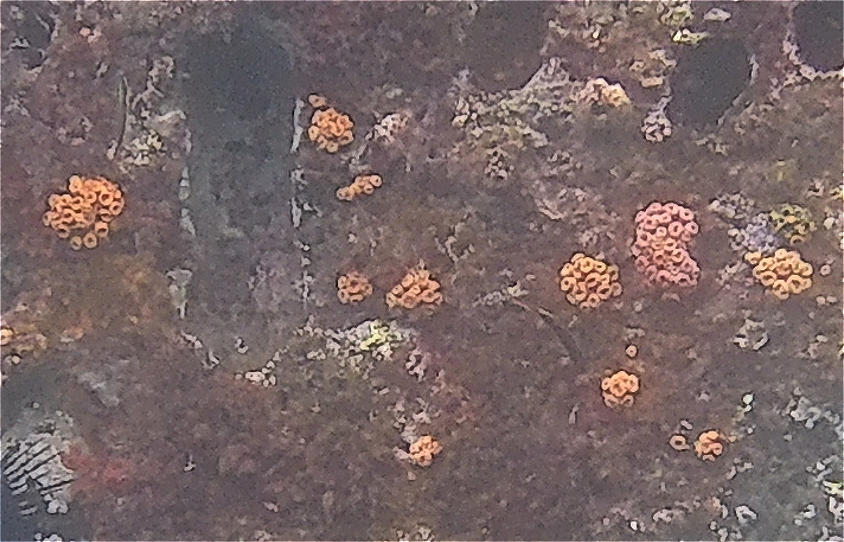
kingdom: Animalia
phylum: Cnidaria
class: Anthozoa
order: Scleractinia
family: Dendrophylliidae
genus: Tubastraea
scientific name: Tubastraea coccinea
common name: Orange cup coral
